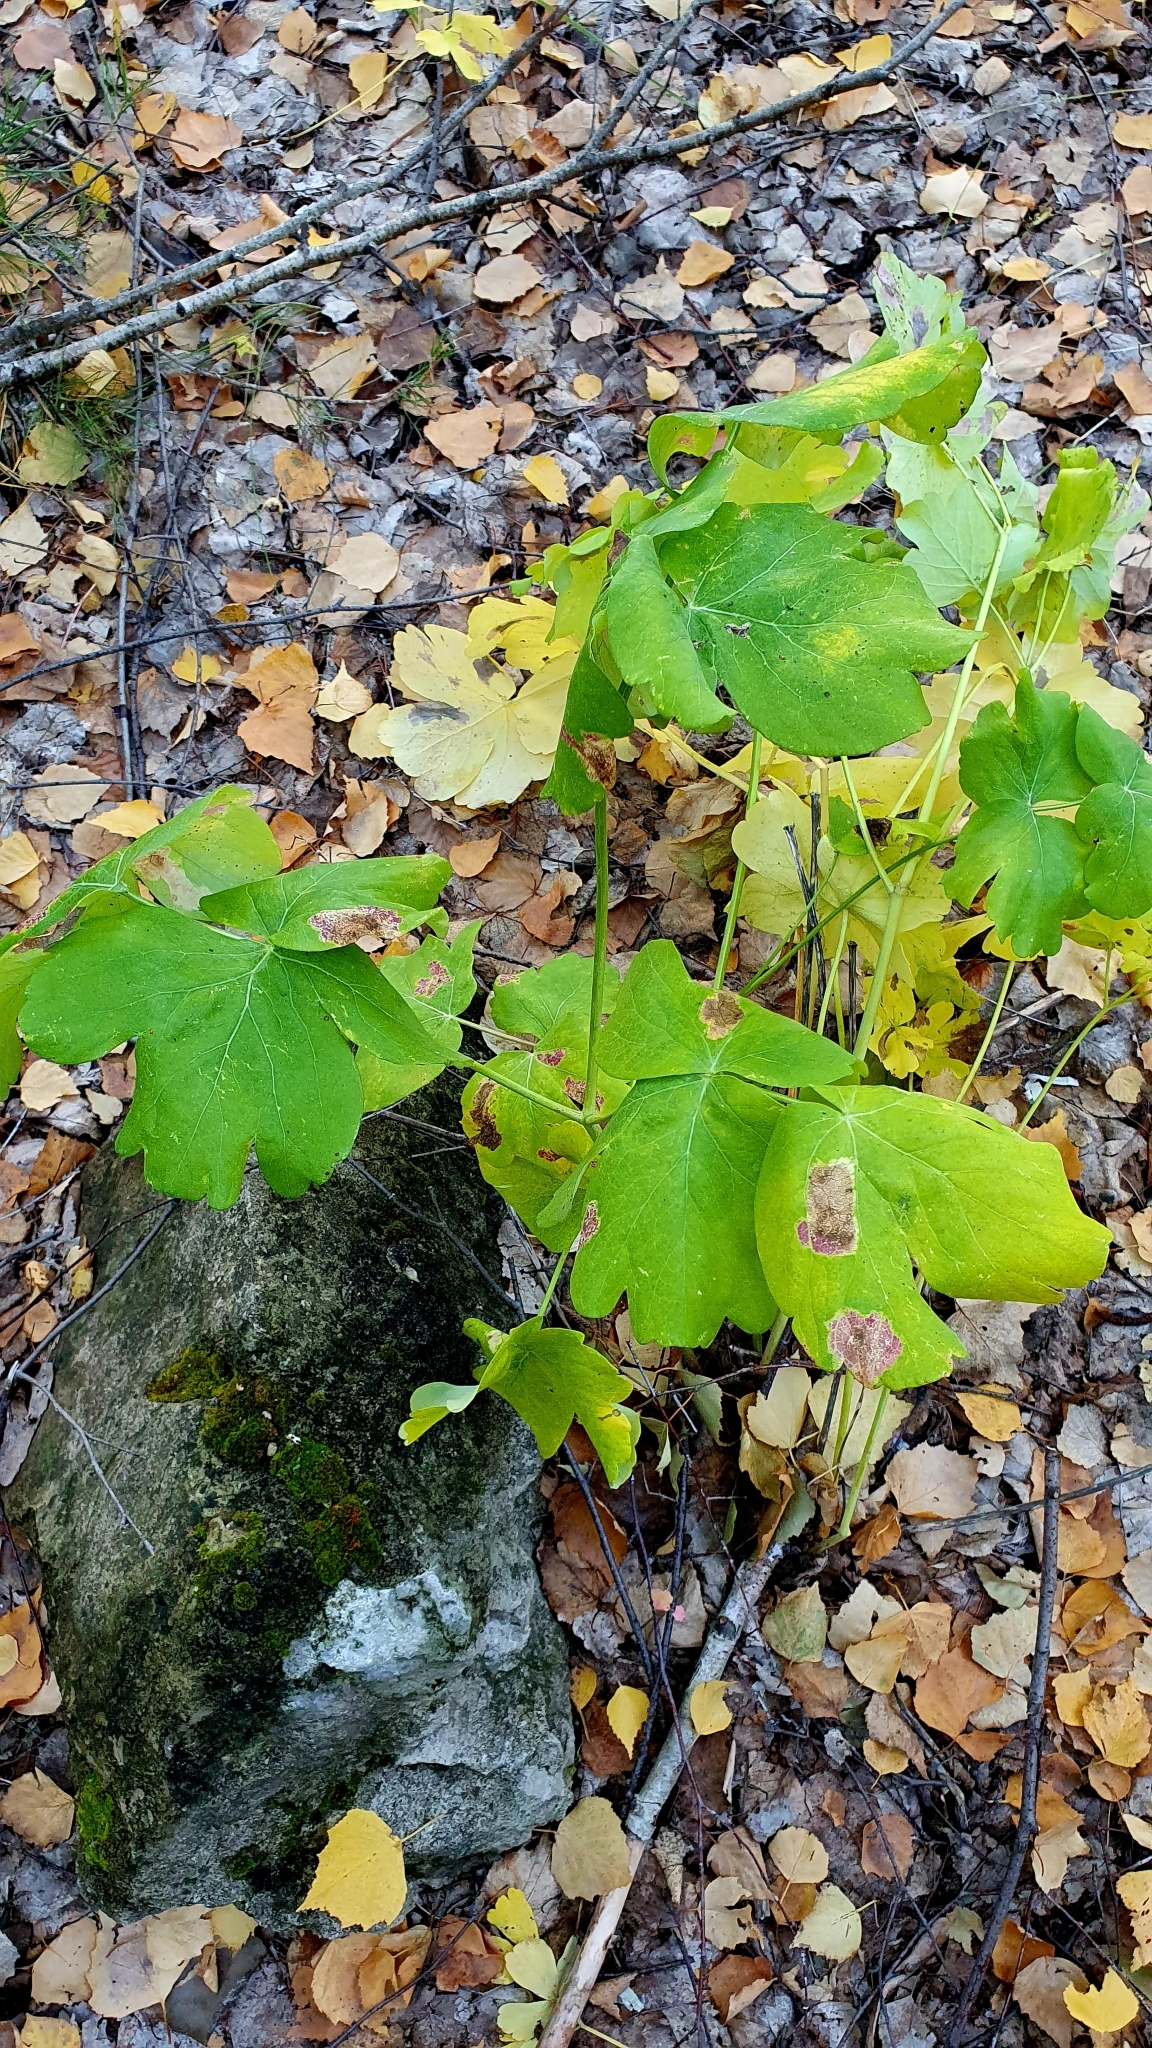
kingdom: Plantae
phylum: Tracheophyta
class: Magnoliopsida
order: Apiales
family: Apiaceae
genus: Laser
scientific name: Laser trilobum
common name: Laser
